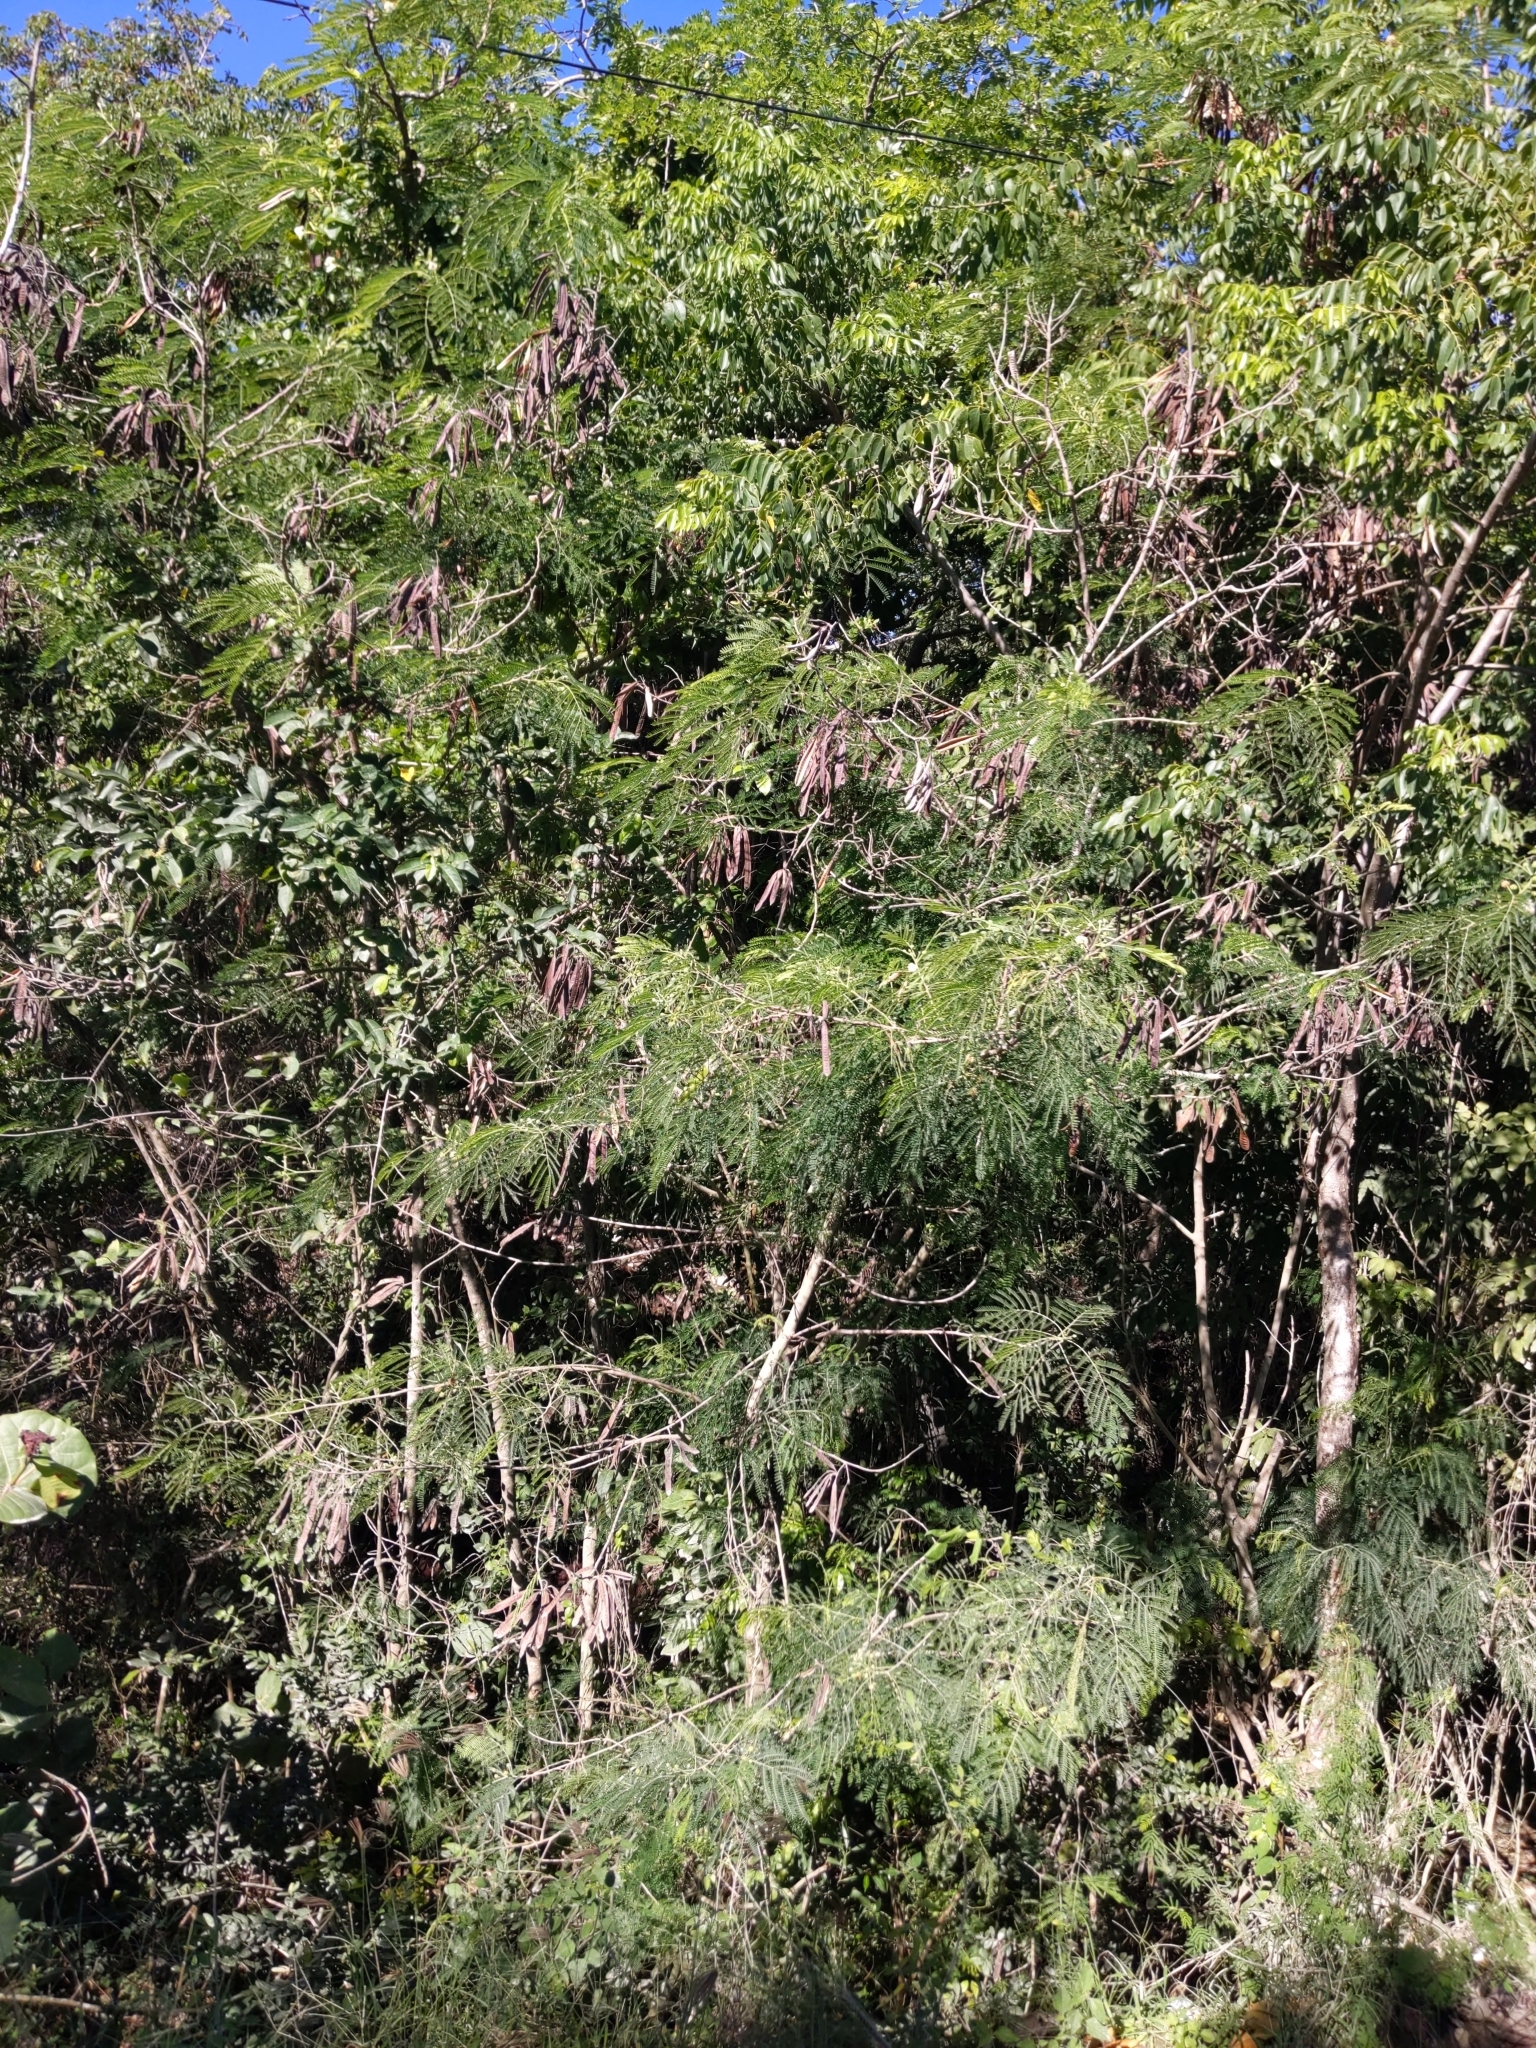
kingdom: Plantae
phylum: Tracheophyta
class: Magnoliopsida
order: Fabales
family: Fabaceae
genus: Leucaena
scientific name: Leucaena leucocephala
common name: White leadtree
